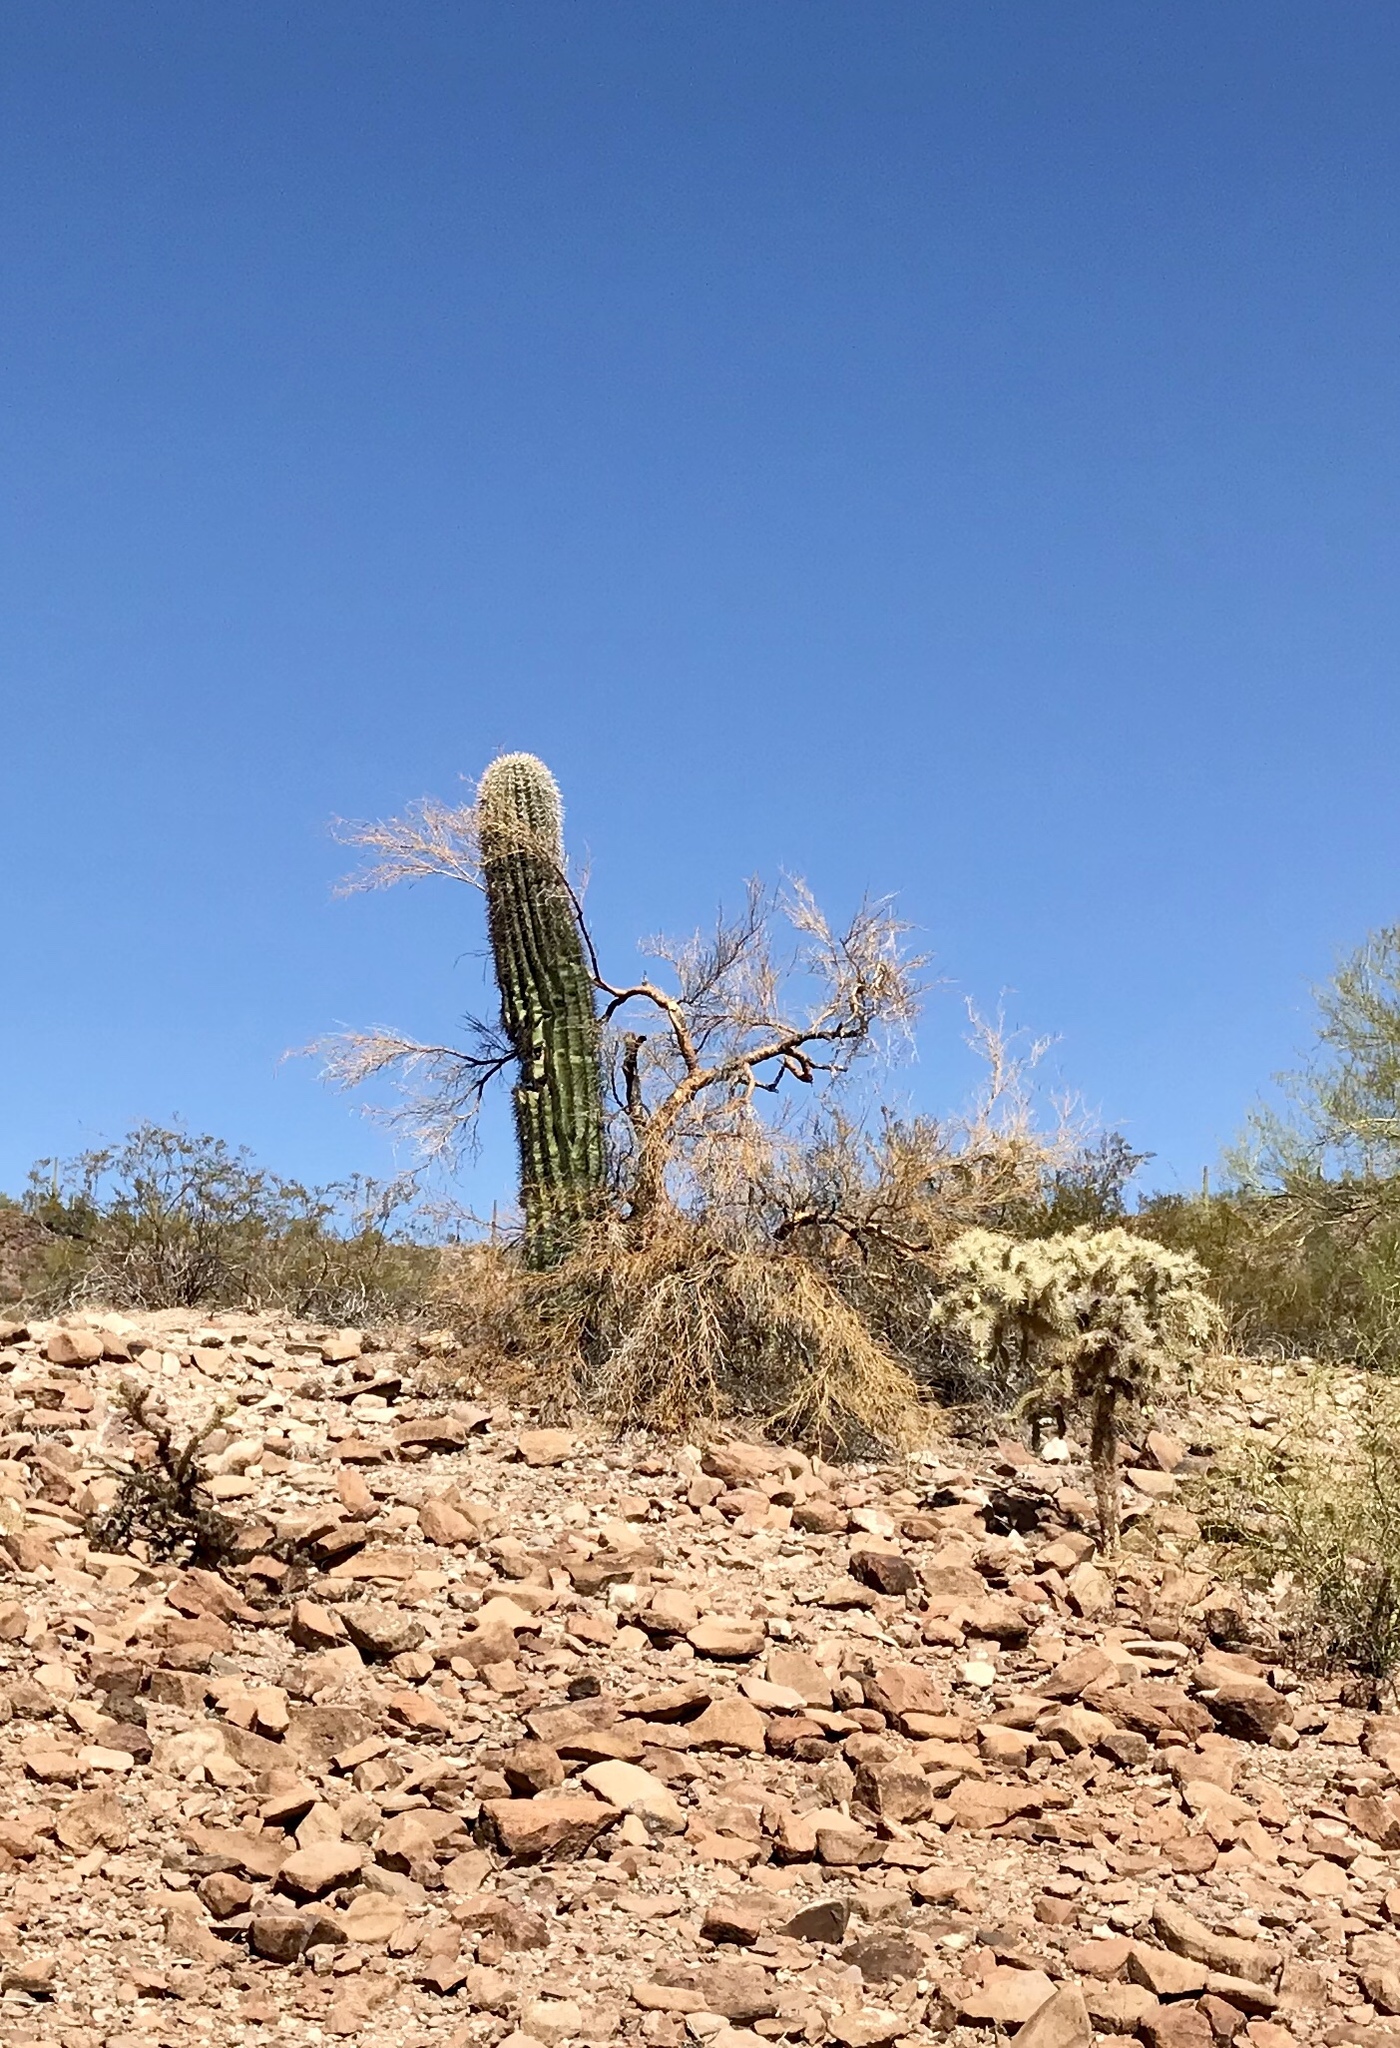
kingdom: Plantae
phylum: Tracheophyta
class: Magnoliopsida
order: Caryophyllales
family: Cactaceae
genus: Carnegiea
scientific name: Carnegiea gigantea
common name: Saguaro
